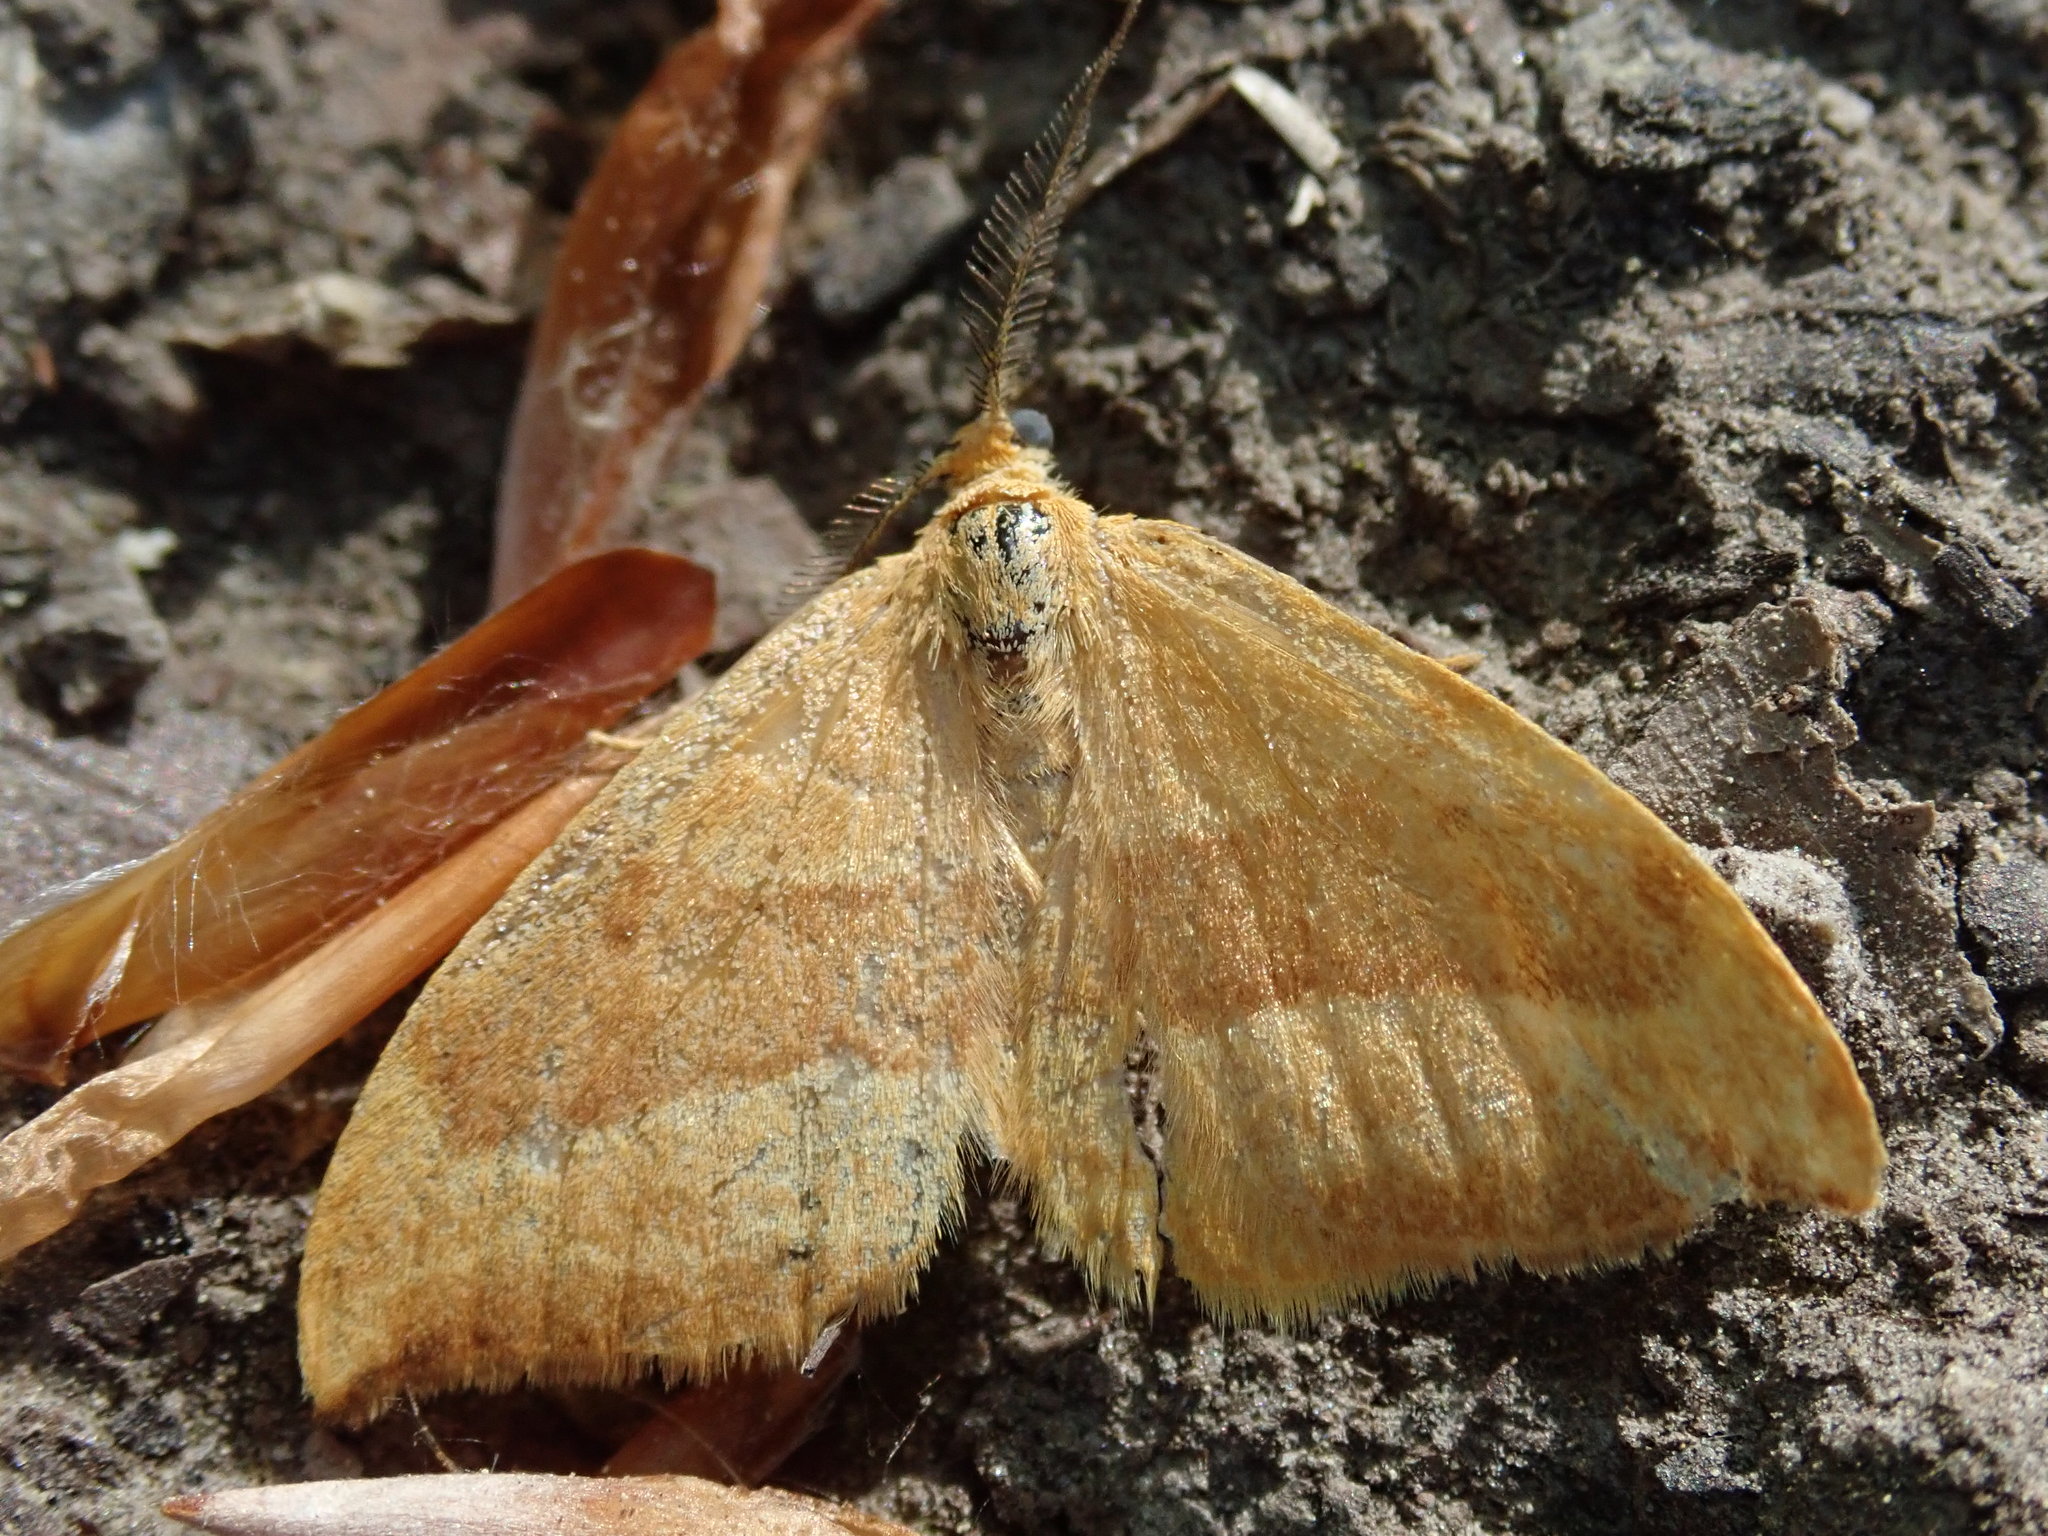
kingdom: Animalia
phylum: Arthropoda
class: Insecta
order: Lepidoptera
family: Drepanidae
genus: Watsonalla
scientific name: Watsonalla cultraria
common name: Barred hook-tip
